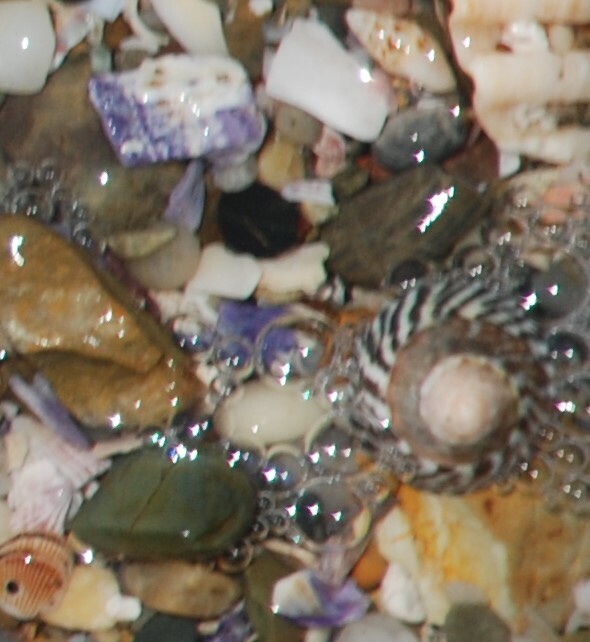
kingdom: Animalia
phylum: Mollusca
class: Gastropoda
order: Littorinimorpha
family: Littorinidae
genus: Bembicium
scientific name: Bembicium nanum
